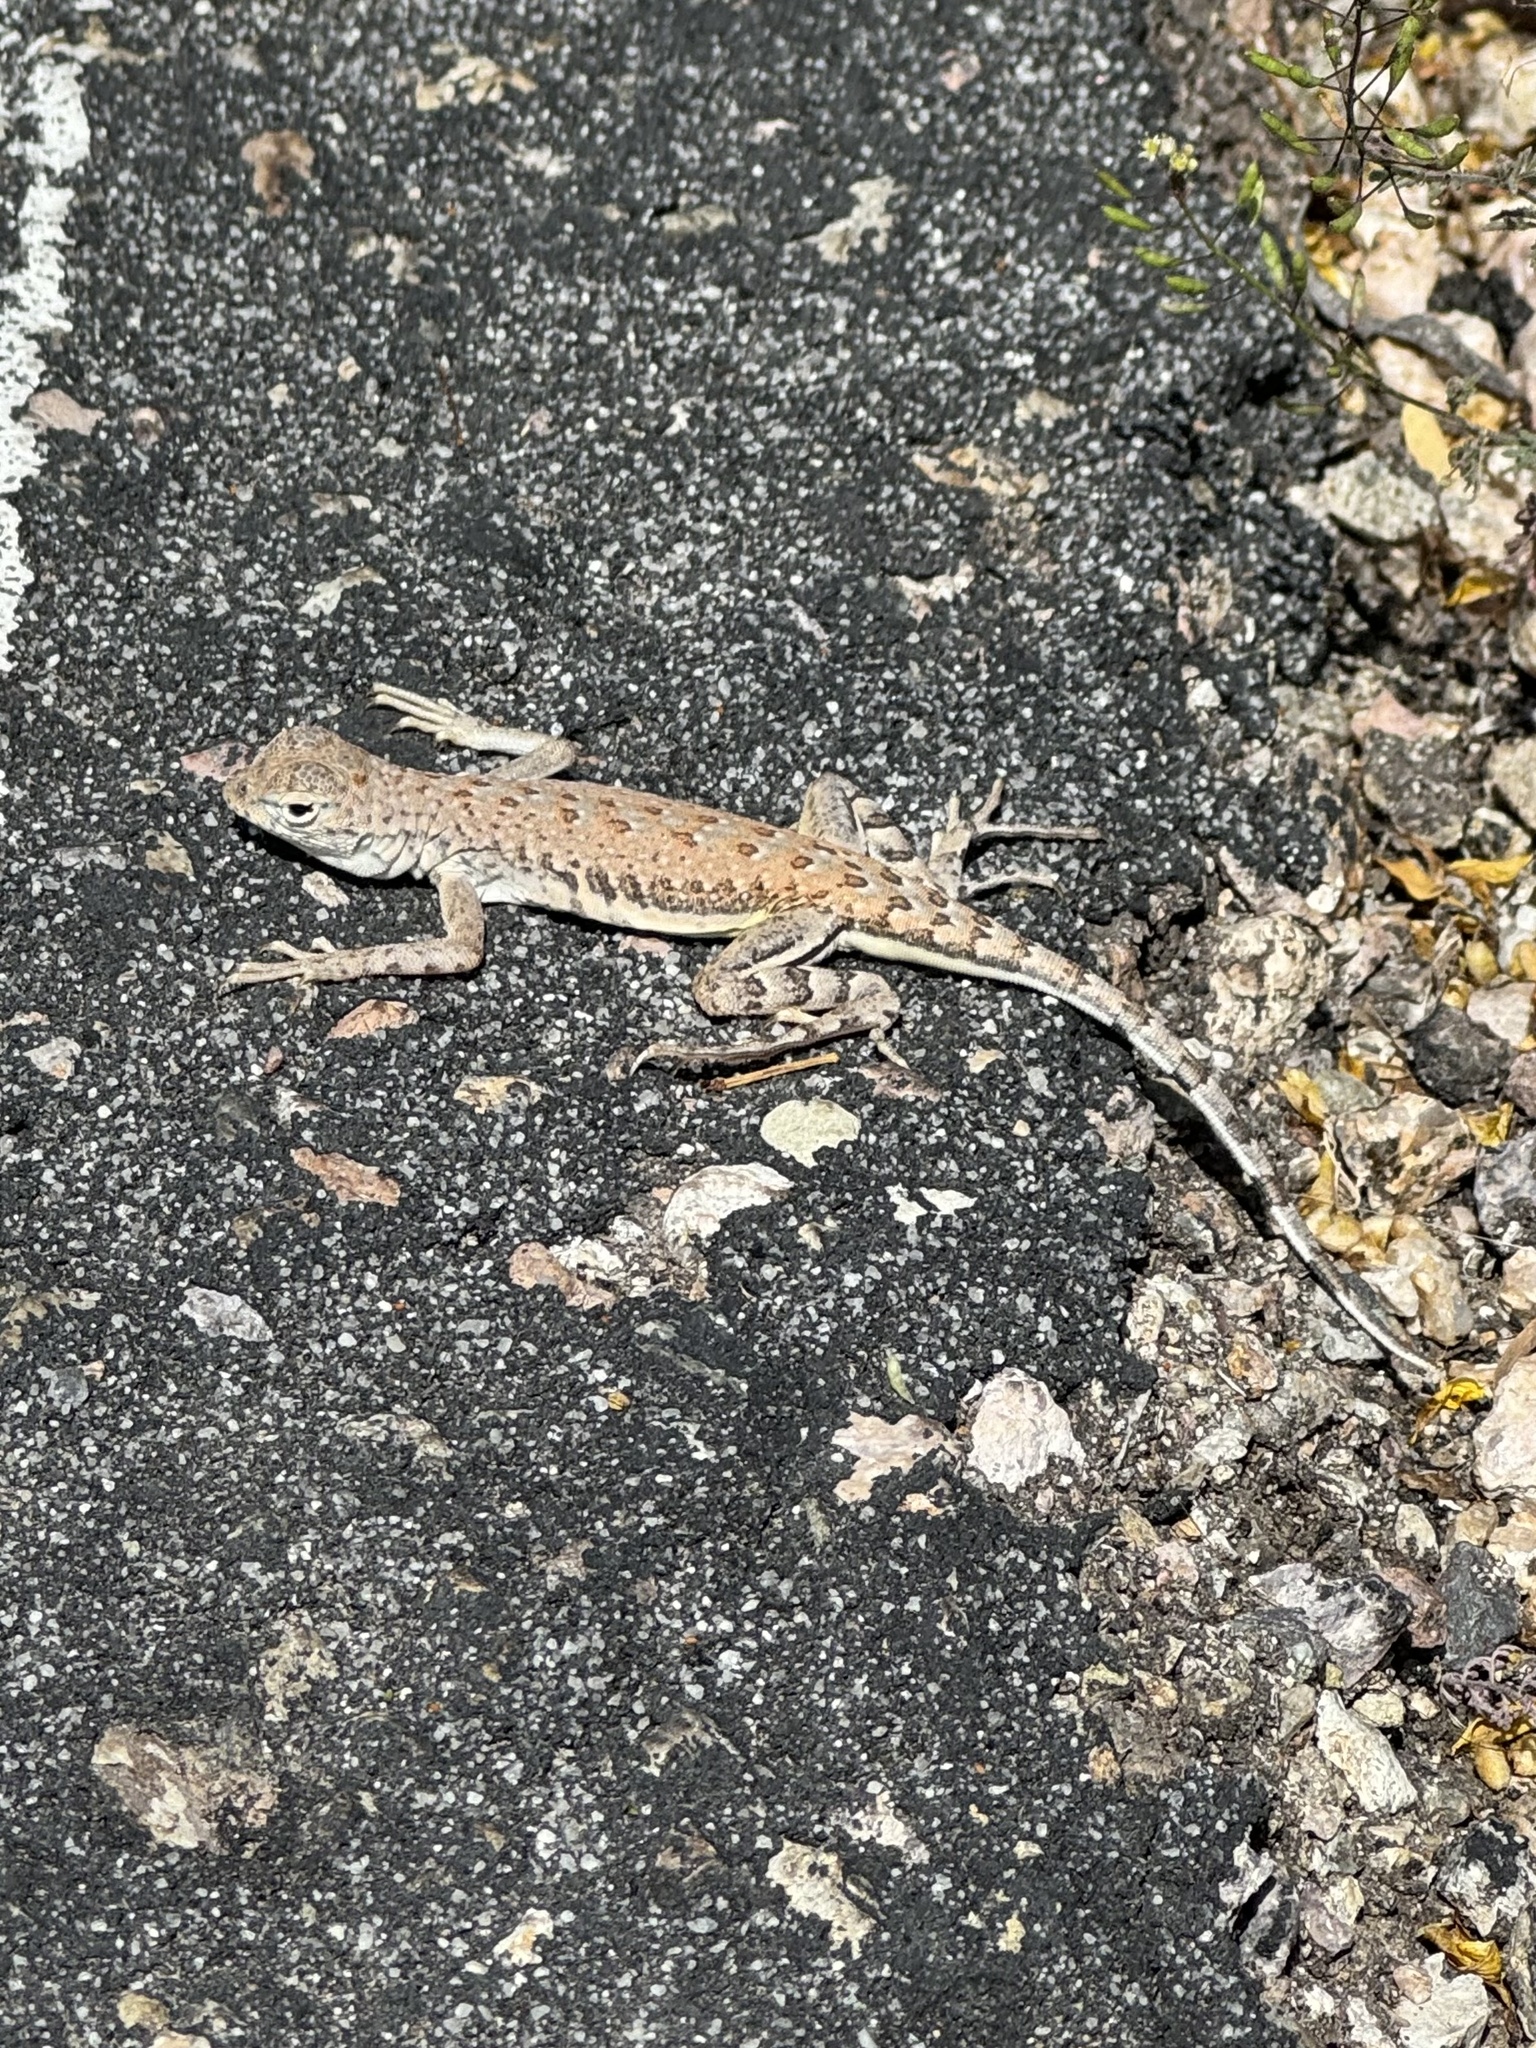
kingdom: Animalia
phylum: Chordata
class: Squamata
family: Phrynosomatidae
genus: Callisaurus
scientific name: Callisaurus draconoides
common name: Zebra-tailed lizard
